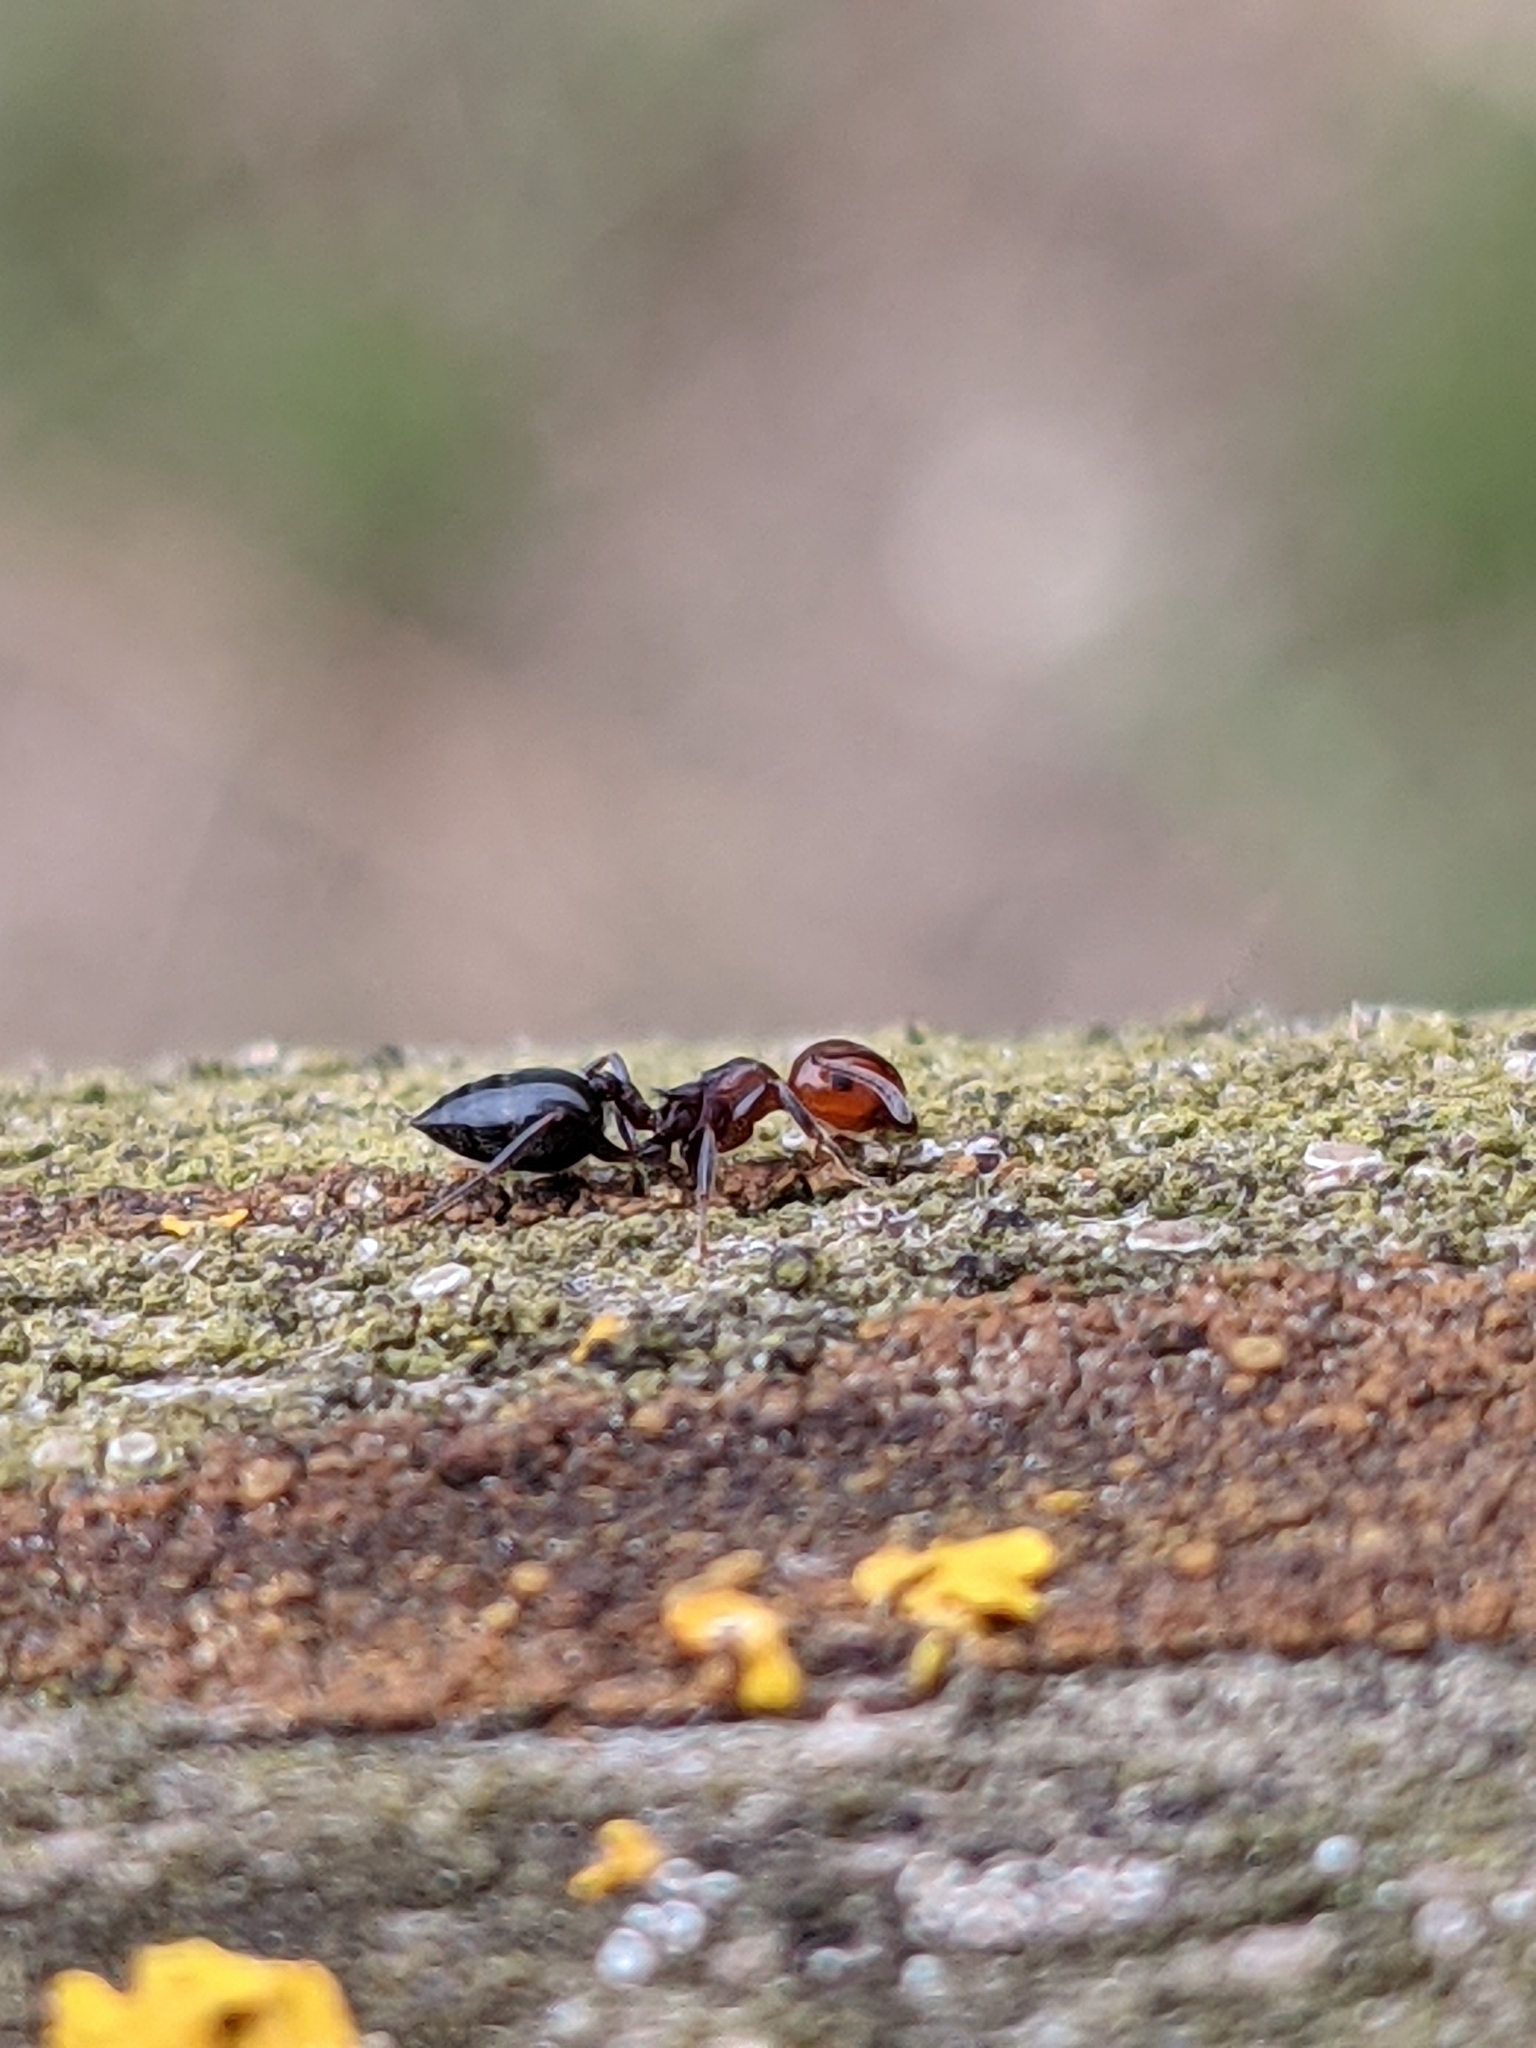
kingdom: Animalia
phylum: Arthropoda
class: Insecta
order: Hymenoptera
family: Formicidae
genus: Crematogaster
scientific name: Crematogaster scutellaris
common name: Fourmi du liège
